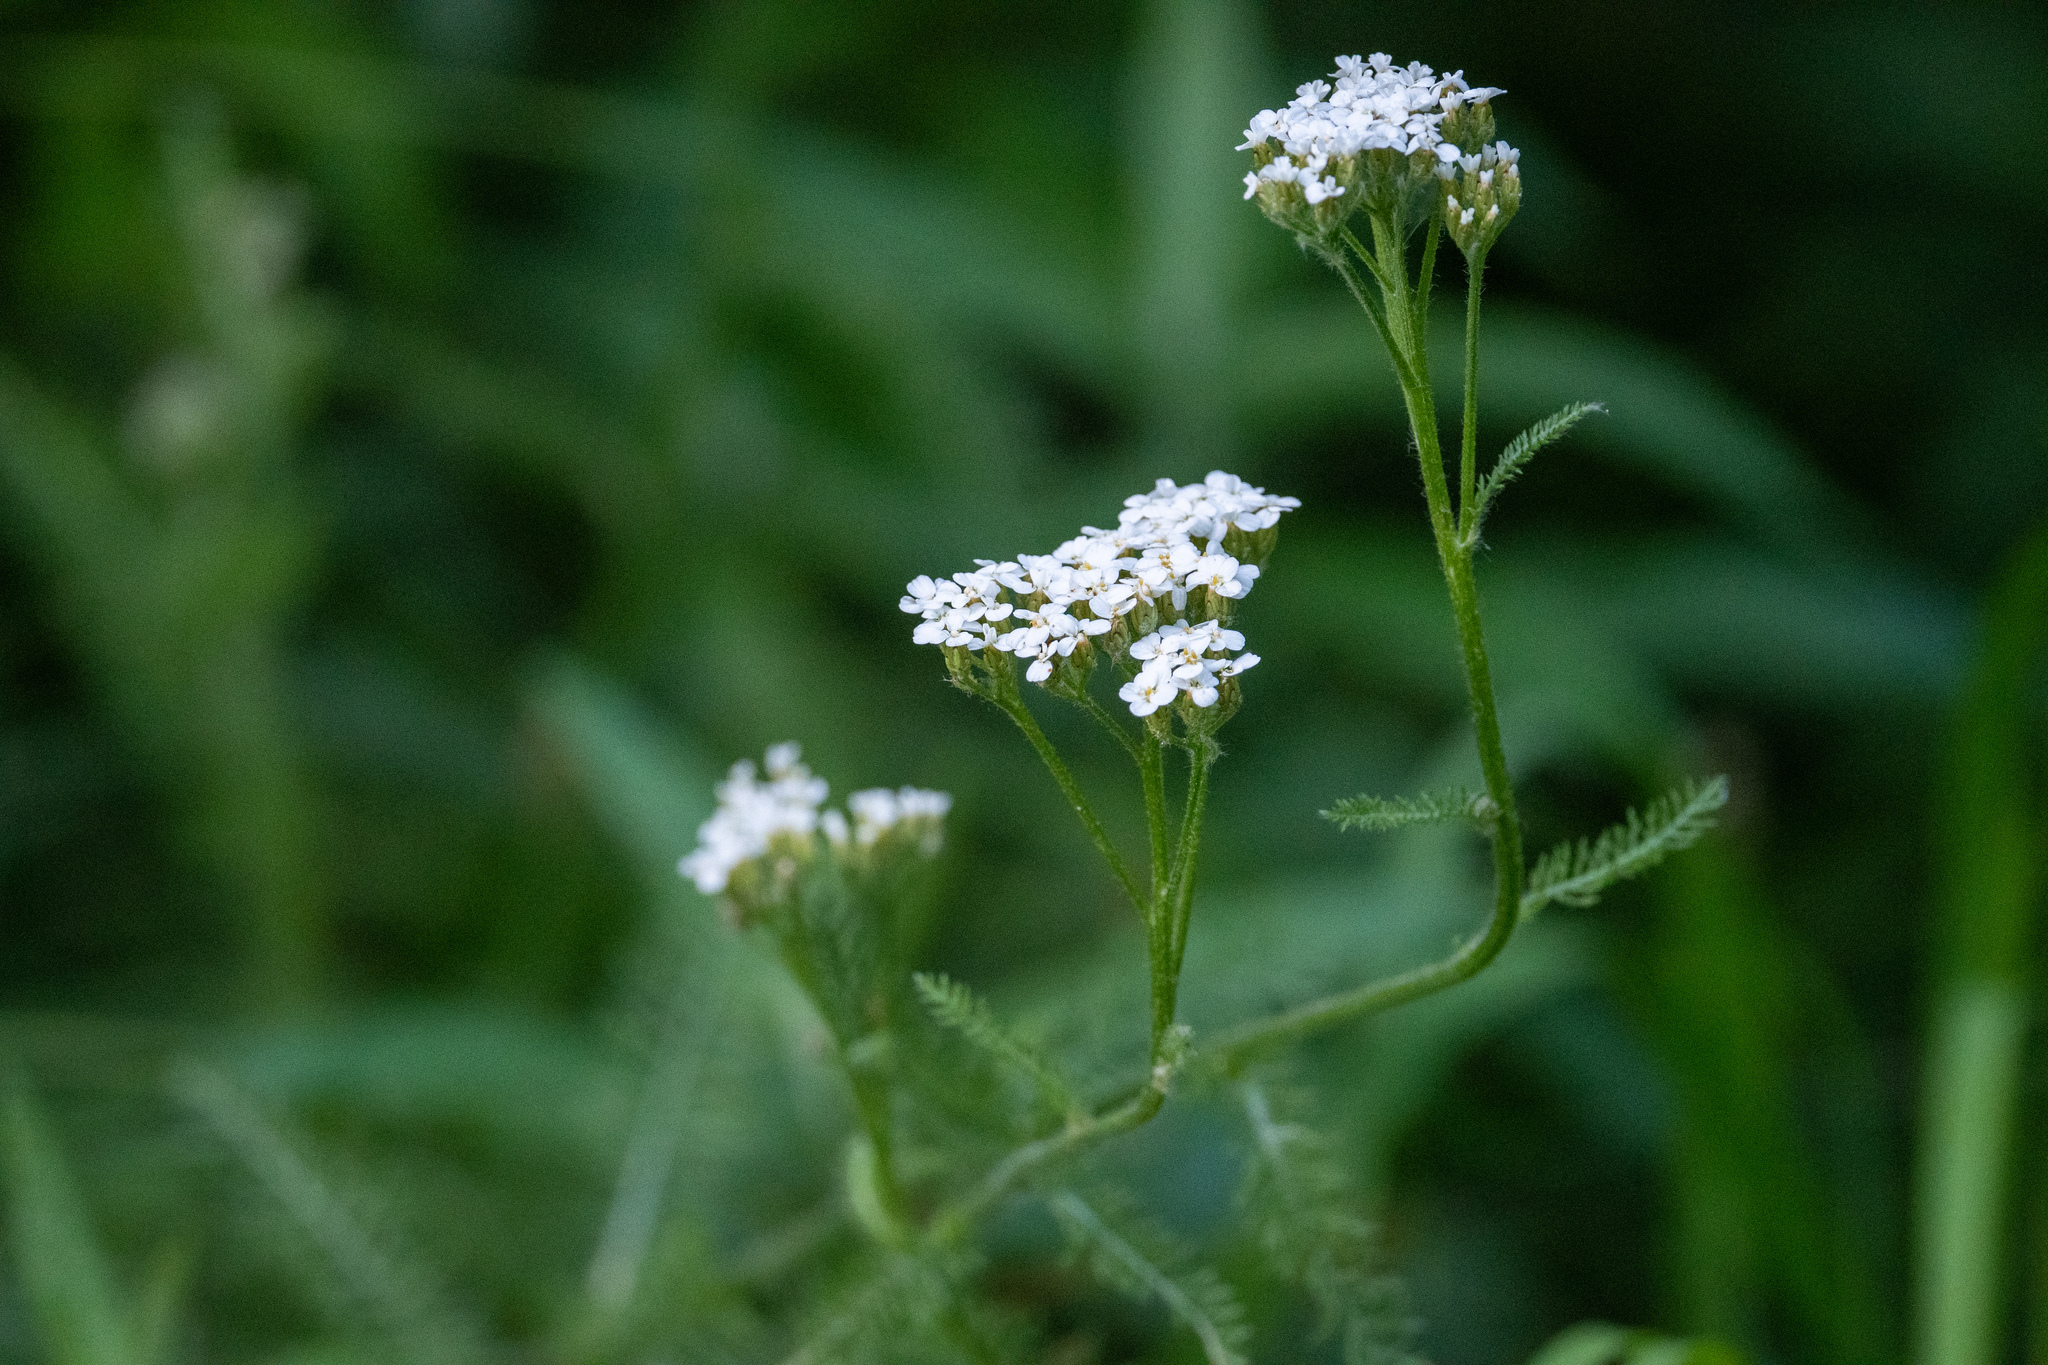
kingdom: Plantae
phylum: Tracheophyta
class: Magnoliopsida
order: Asterales
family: Asteraceae
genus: Achillea
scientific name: Achillea millefolium
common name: Yarrow
